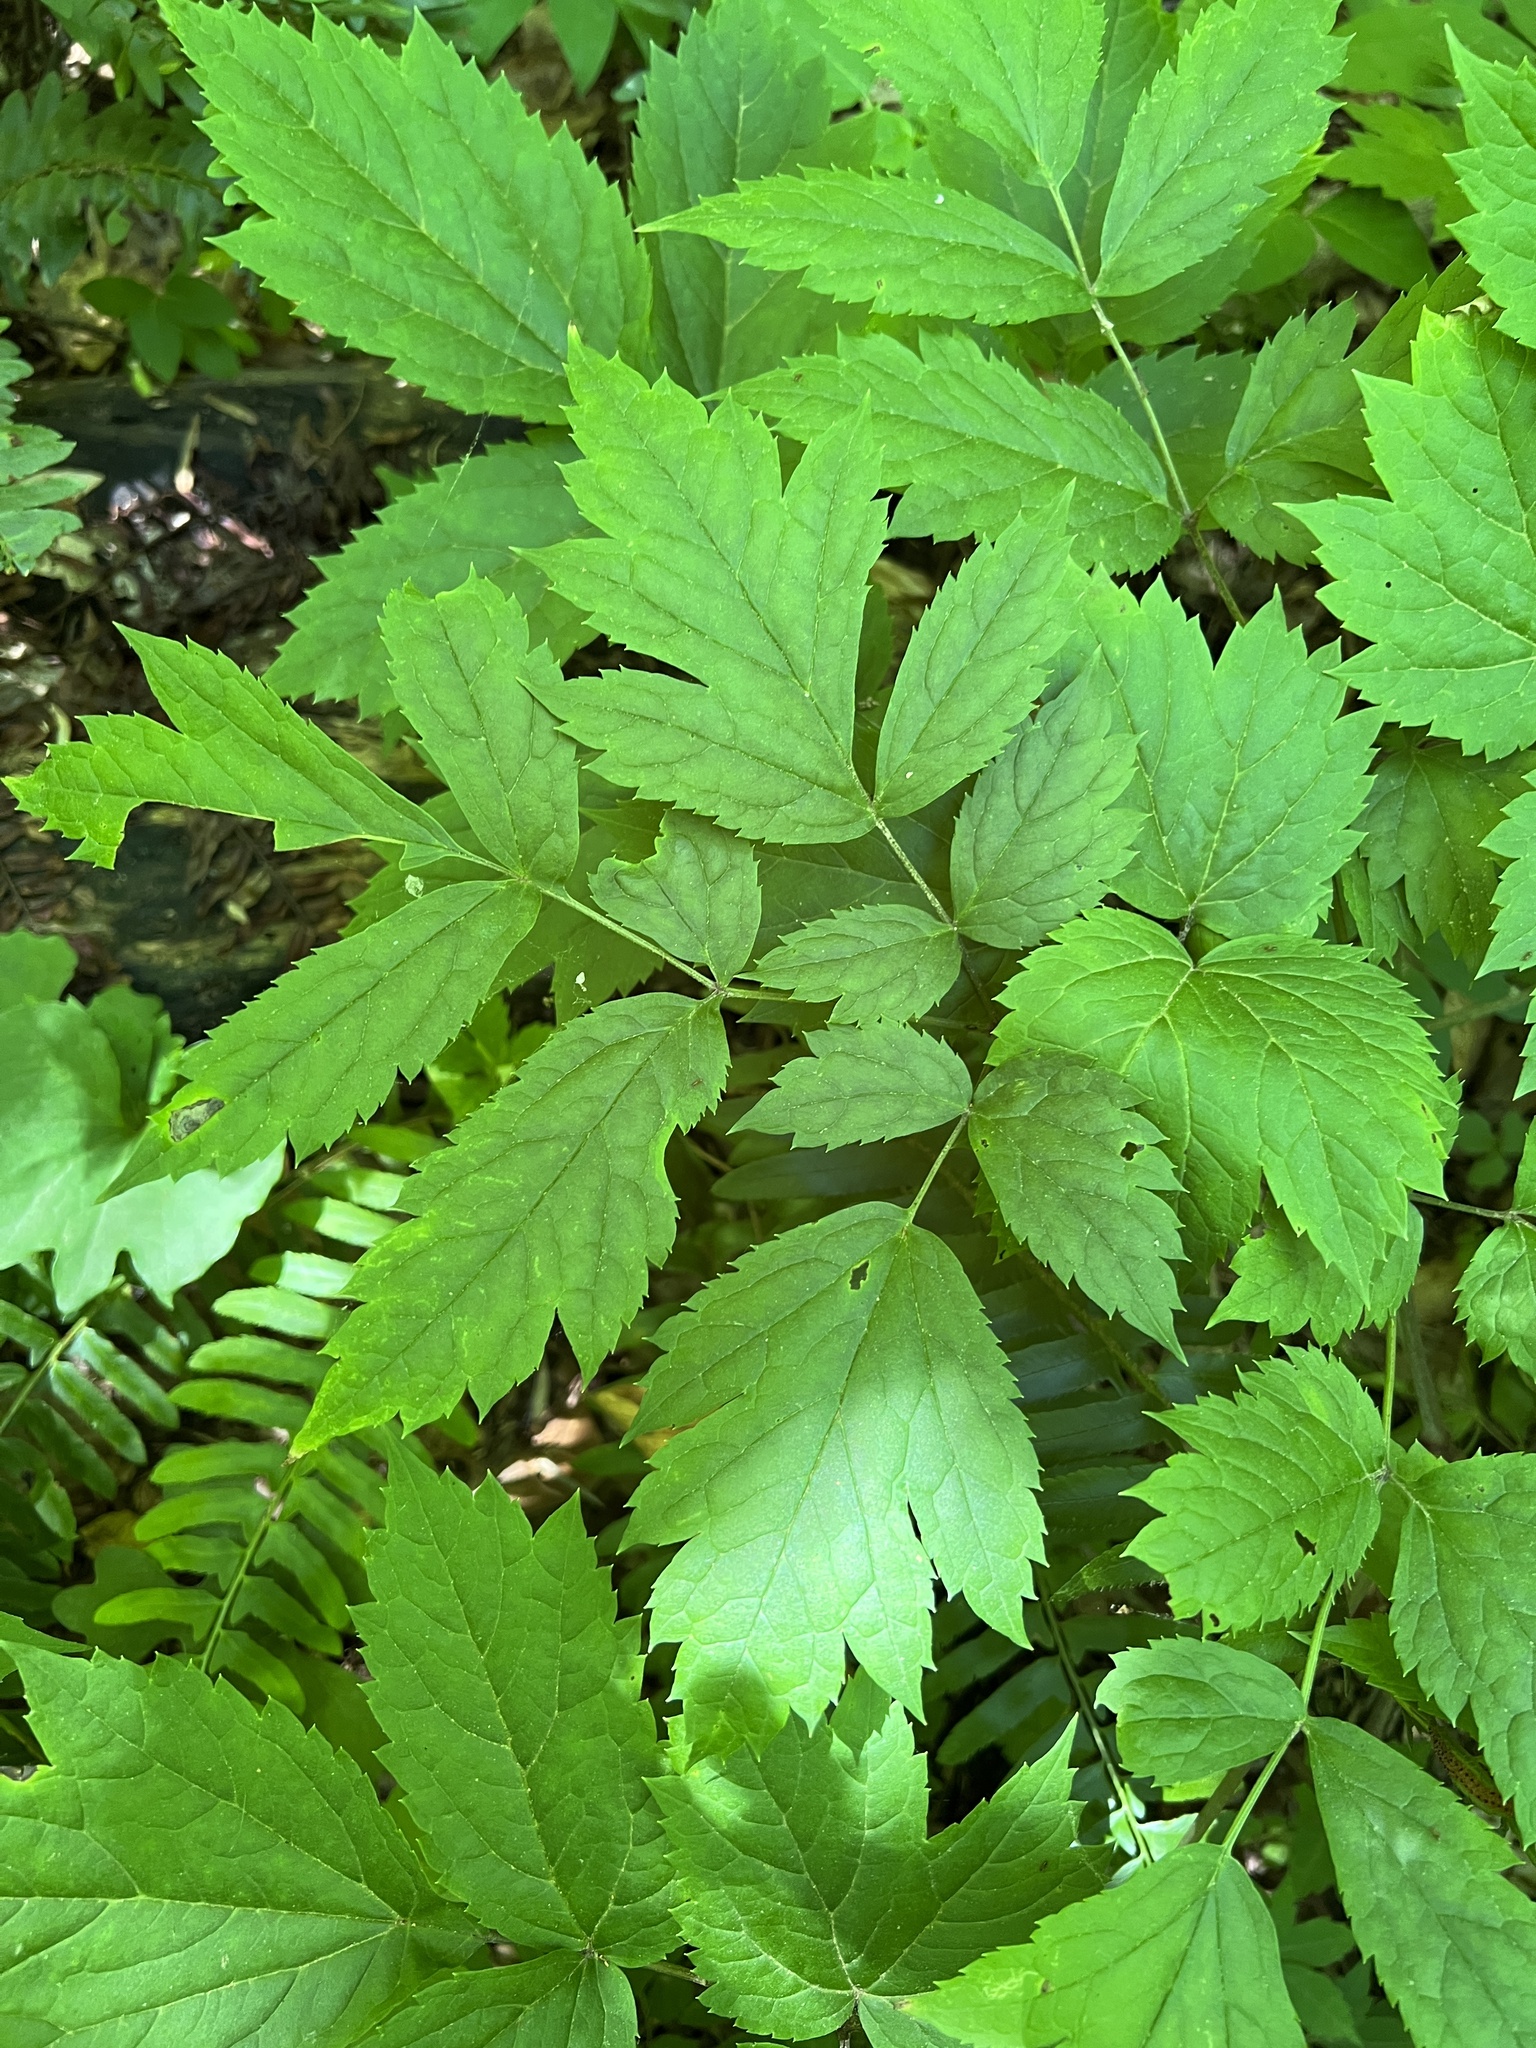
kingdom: Plantae
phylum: Tracheophyta
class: Magnoliopsida
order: Ranunculales
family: Ranunculaceae
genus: Actaea
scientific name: Actaea racemosa
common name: Black cohosh
